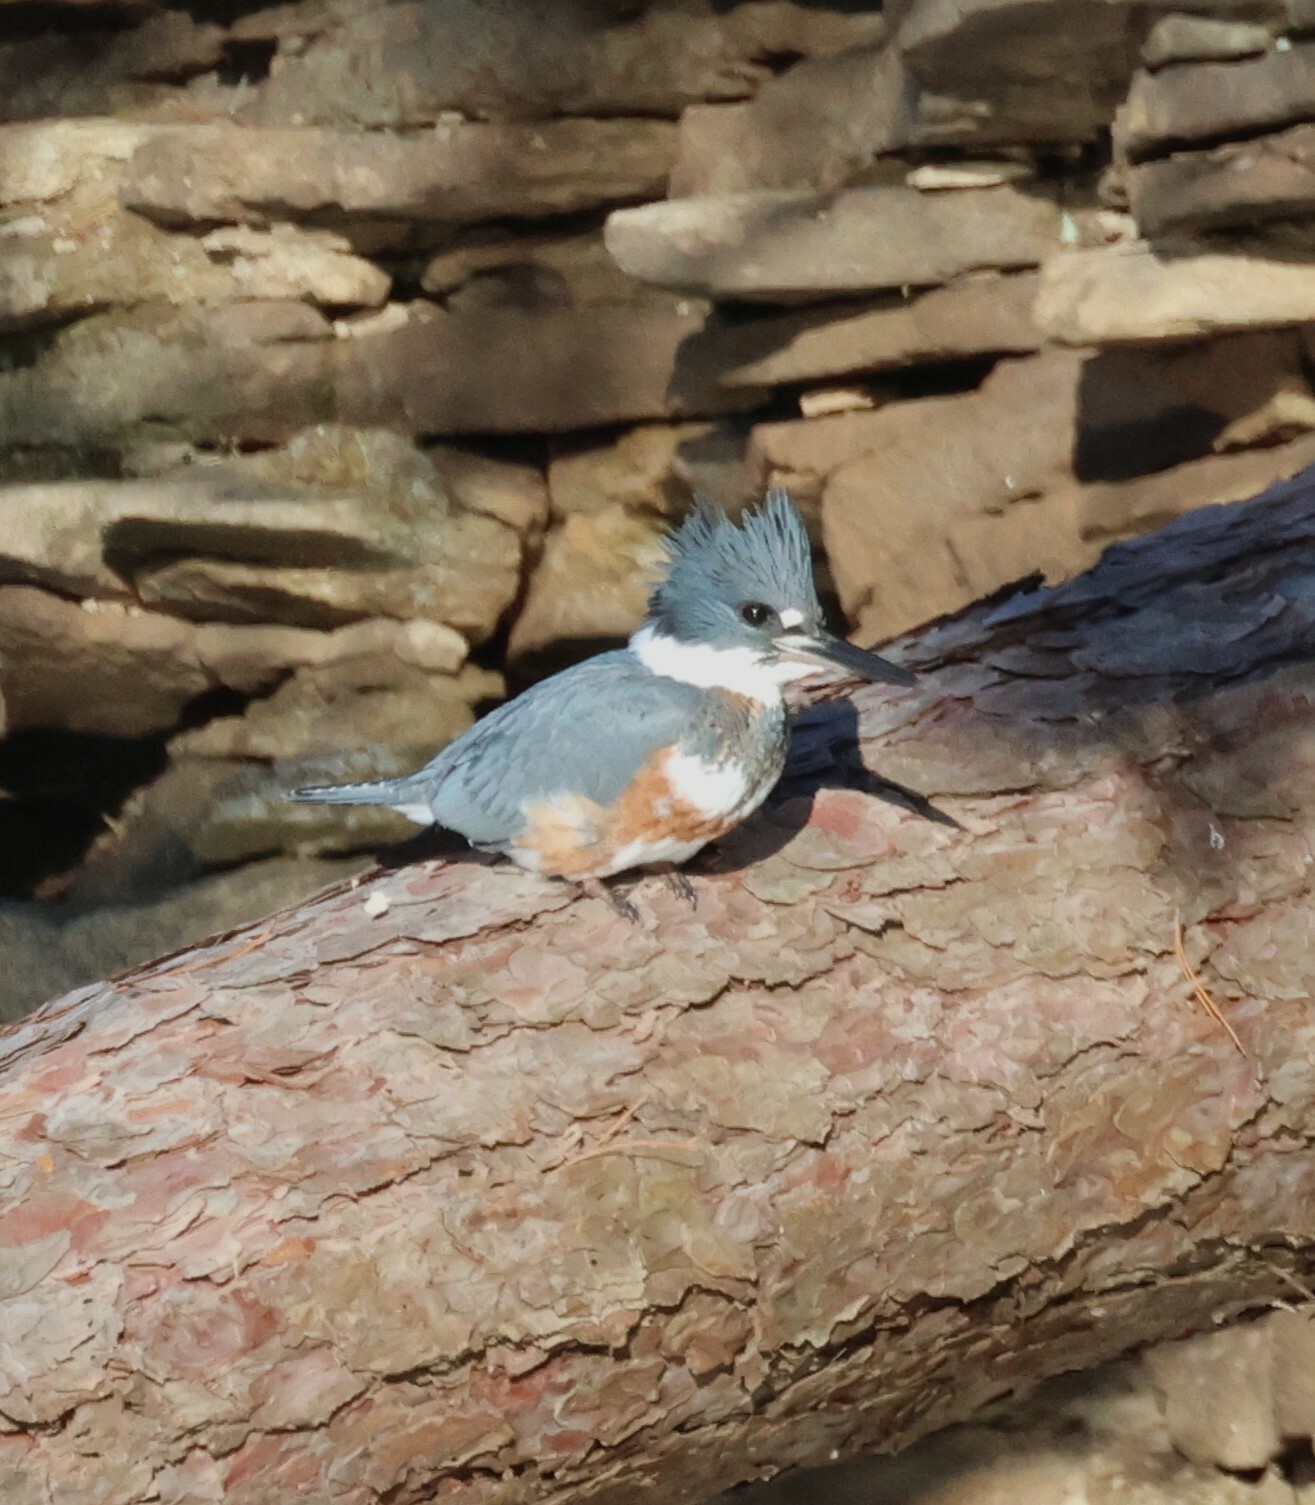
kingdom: Animalia
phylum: Chordata
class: Aves
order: Coraciiformes
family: Alcedinidae
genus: Megaceryle
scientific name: Megaceryle alcyon
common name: Belted kingfisher
